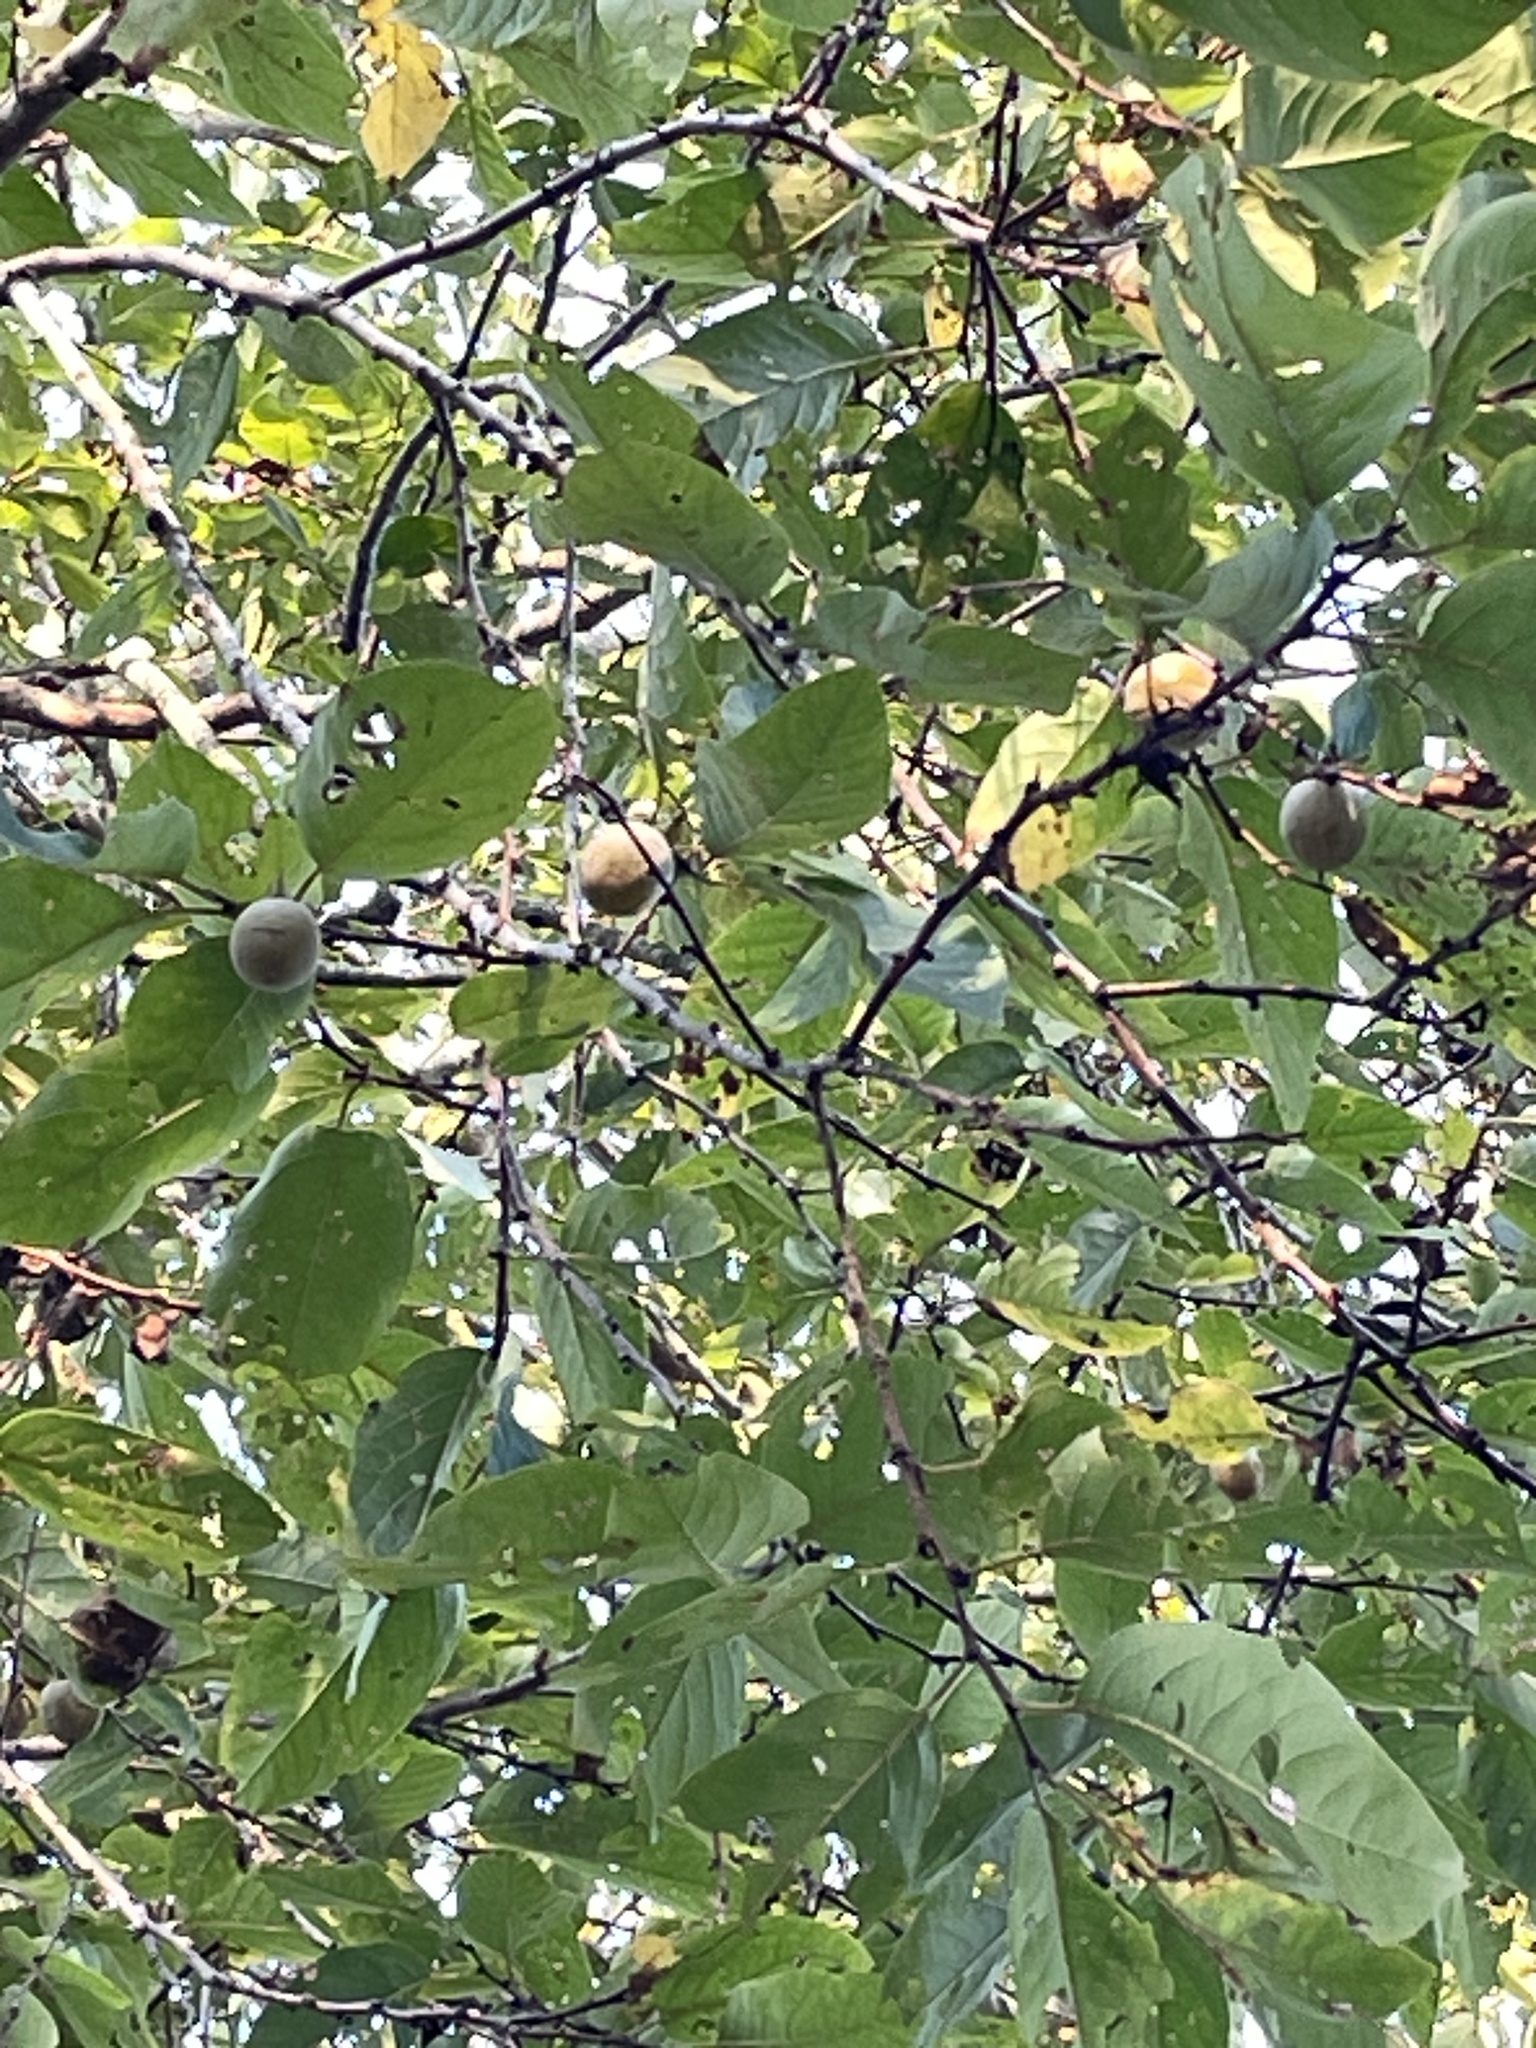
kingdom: Plantae
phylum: Tracheophyta
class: Magnoliopsida
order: Ericales
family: Ebenaceae
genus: Diospyros
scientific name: Diospyros virginiana
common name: Persimmon
